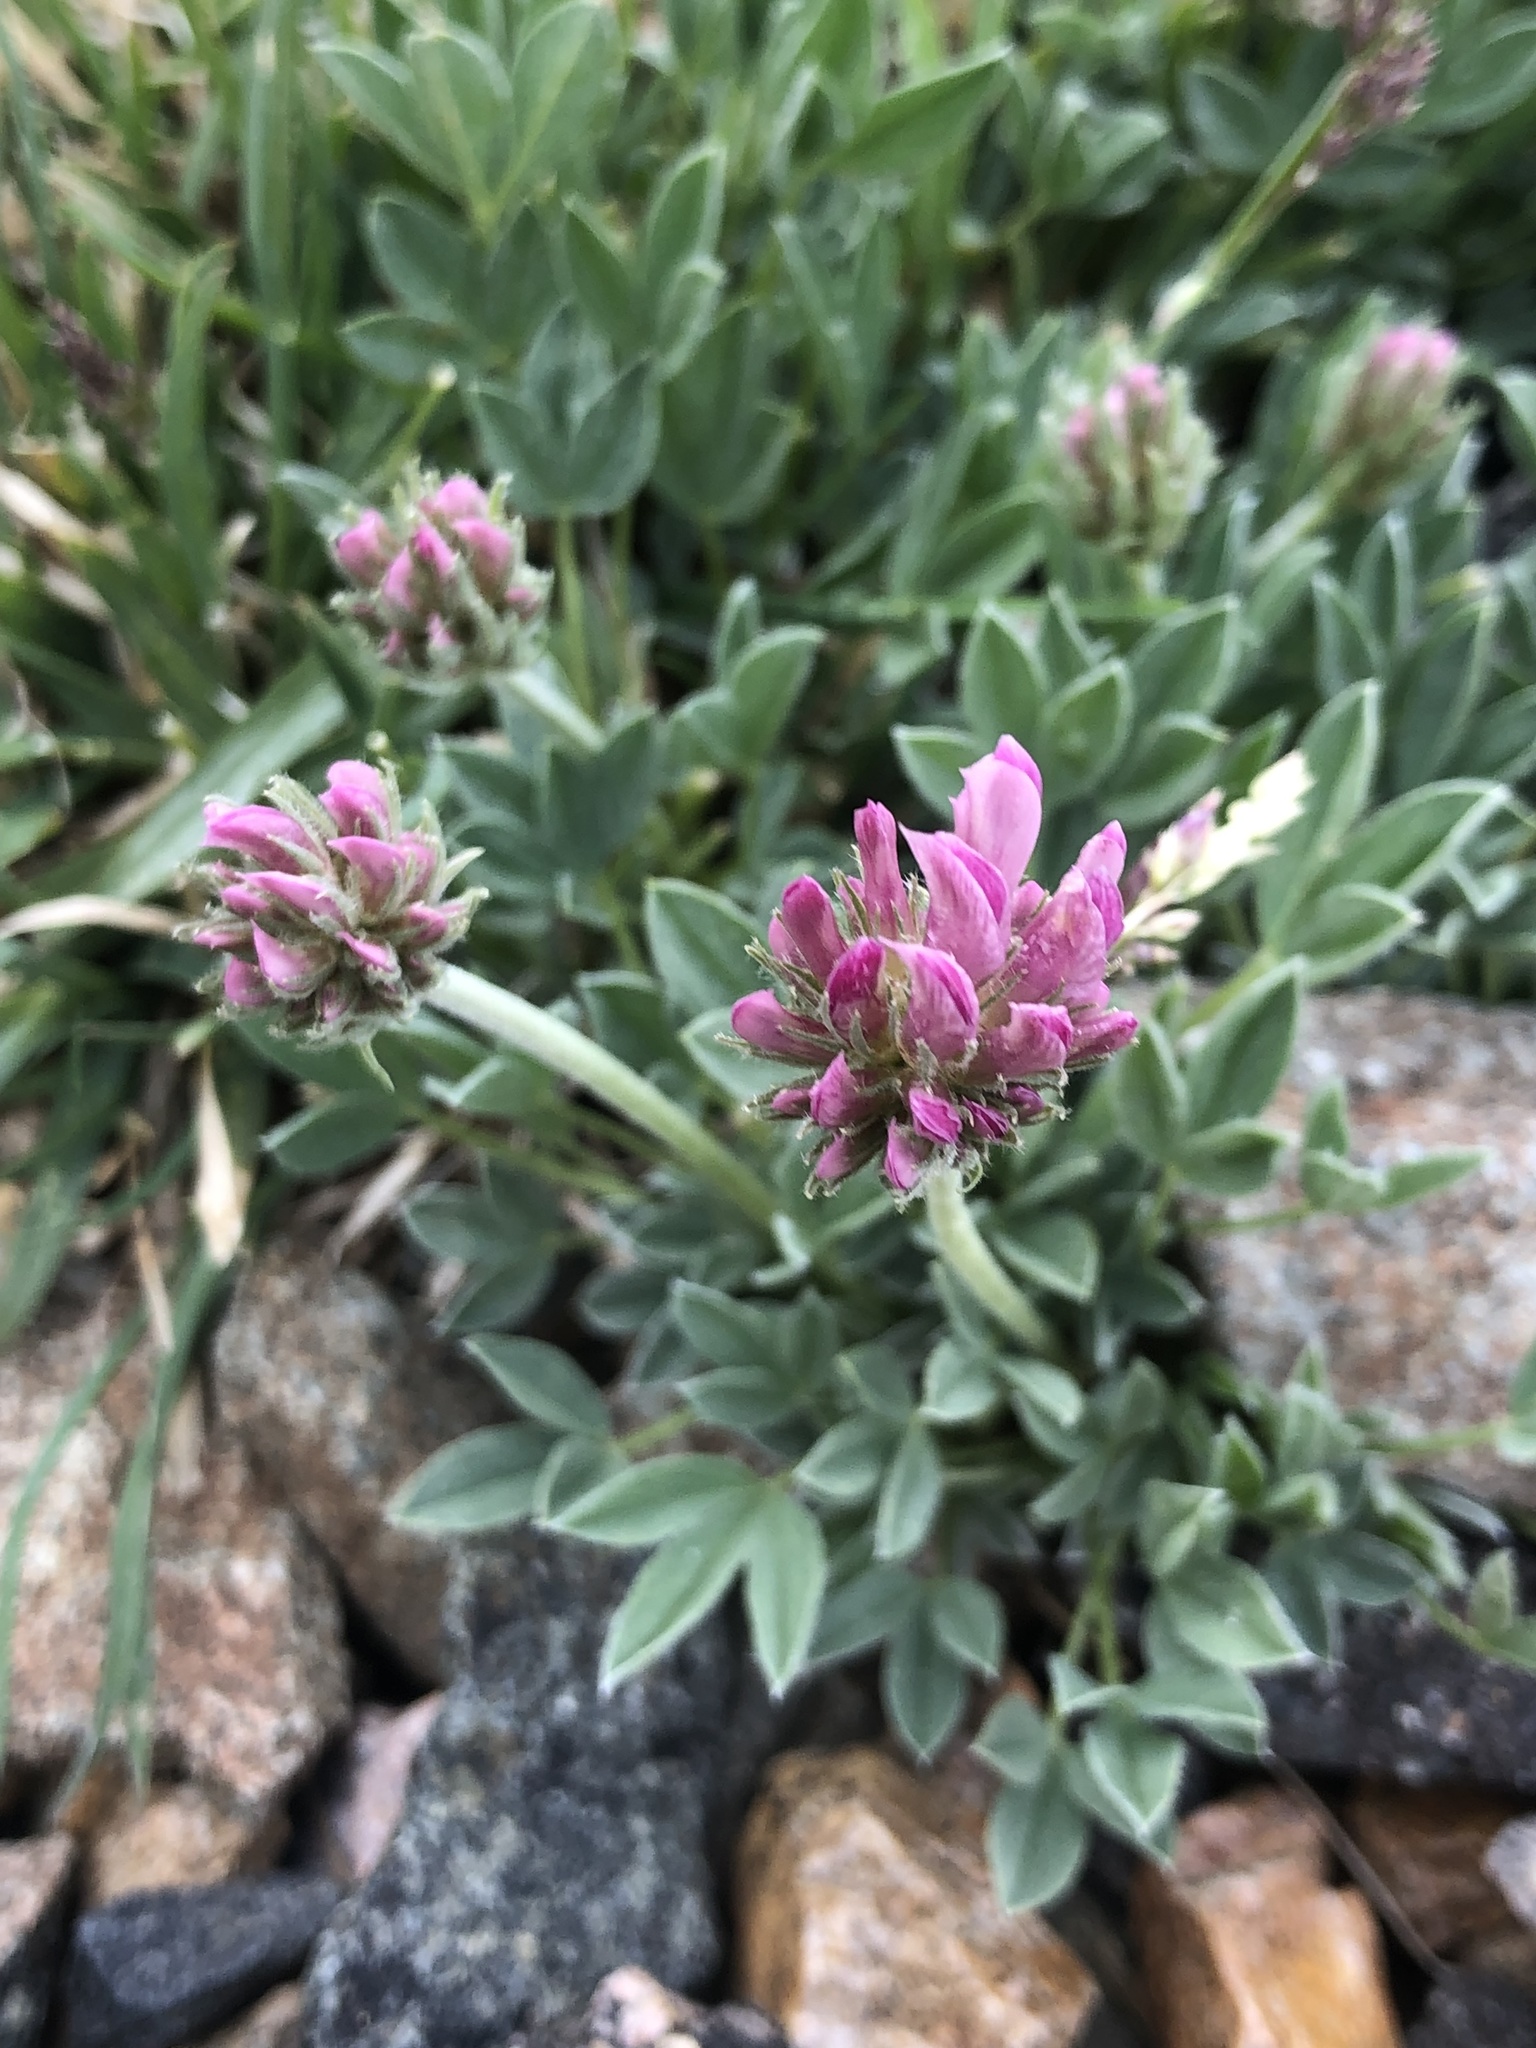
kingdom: Plantae
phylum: Tracheophyta
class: Magnoliopsida
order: Fabales
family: Fabaceae
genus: Trifolium
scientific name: Trifolium dasyphyllum
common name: Whip-root clover
